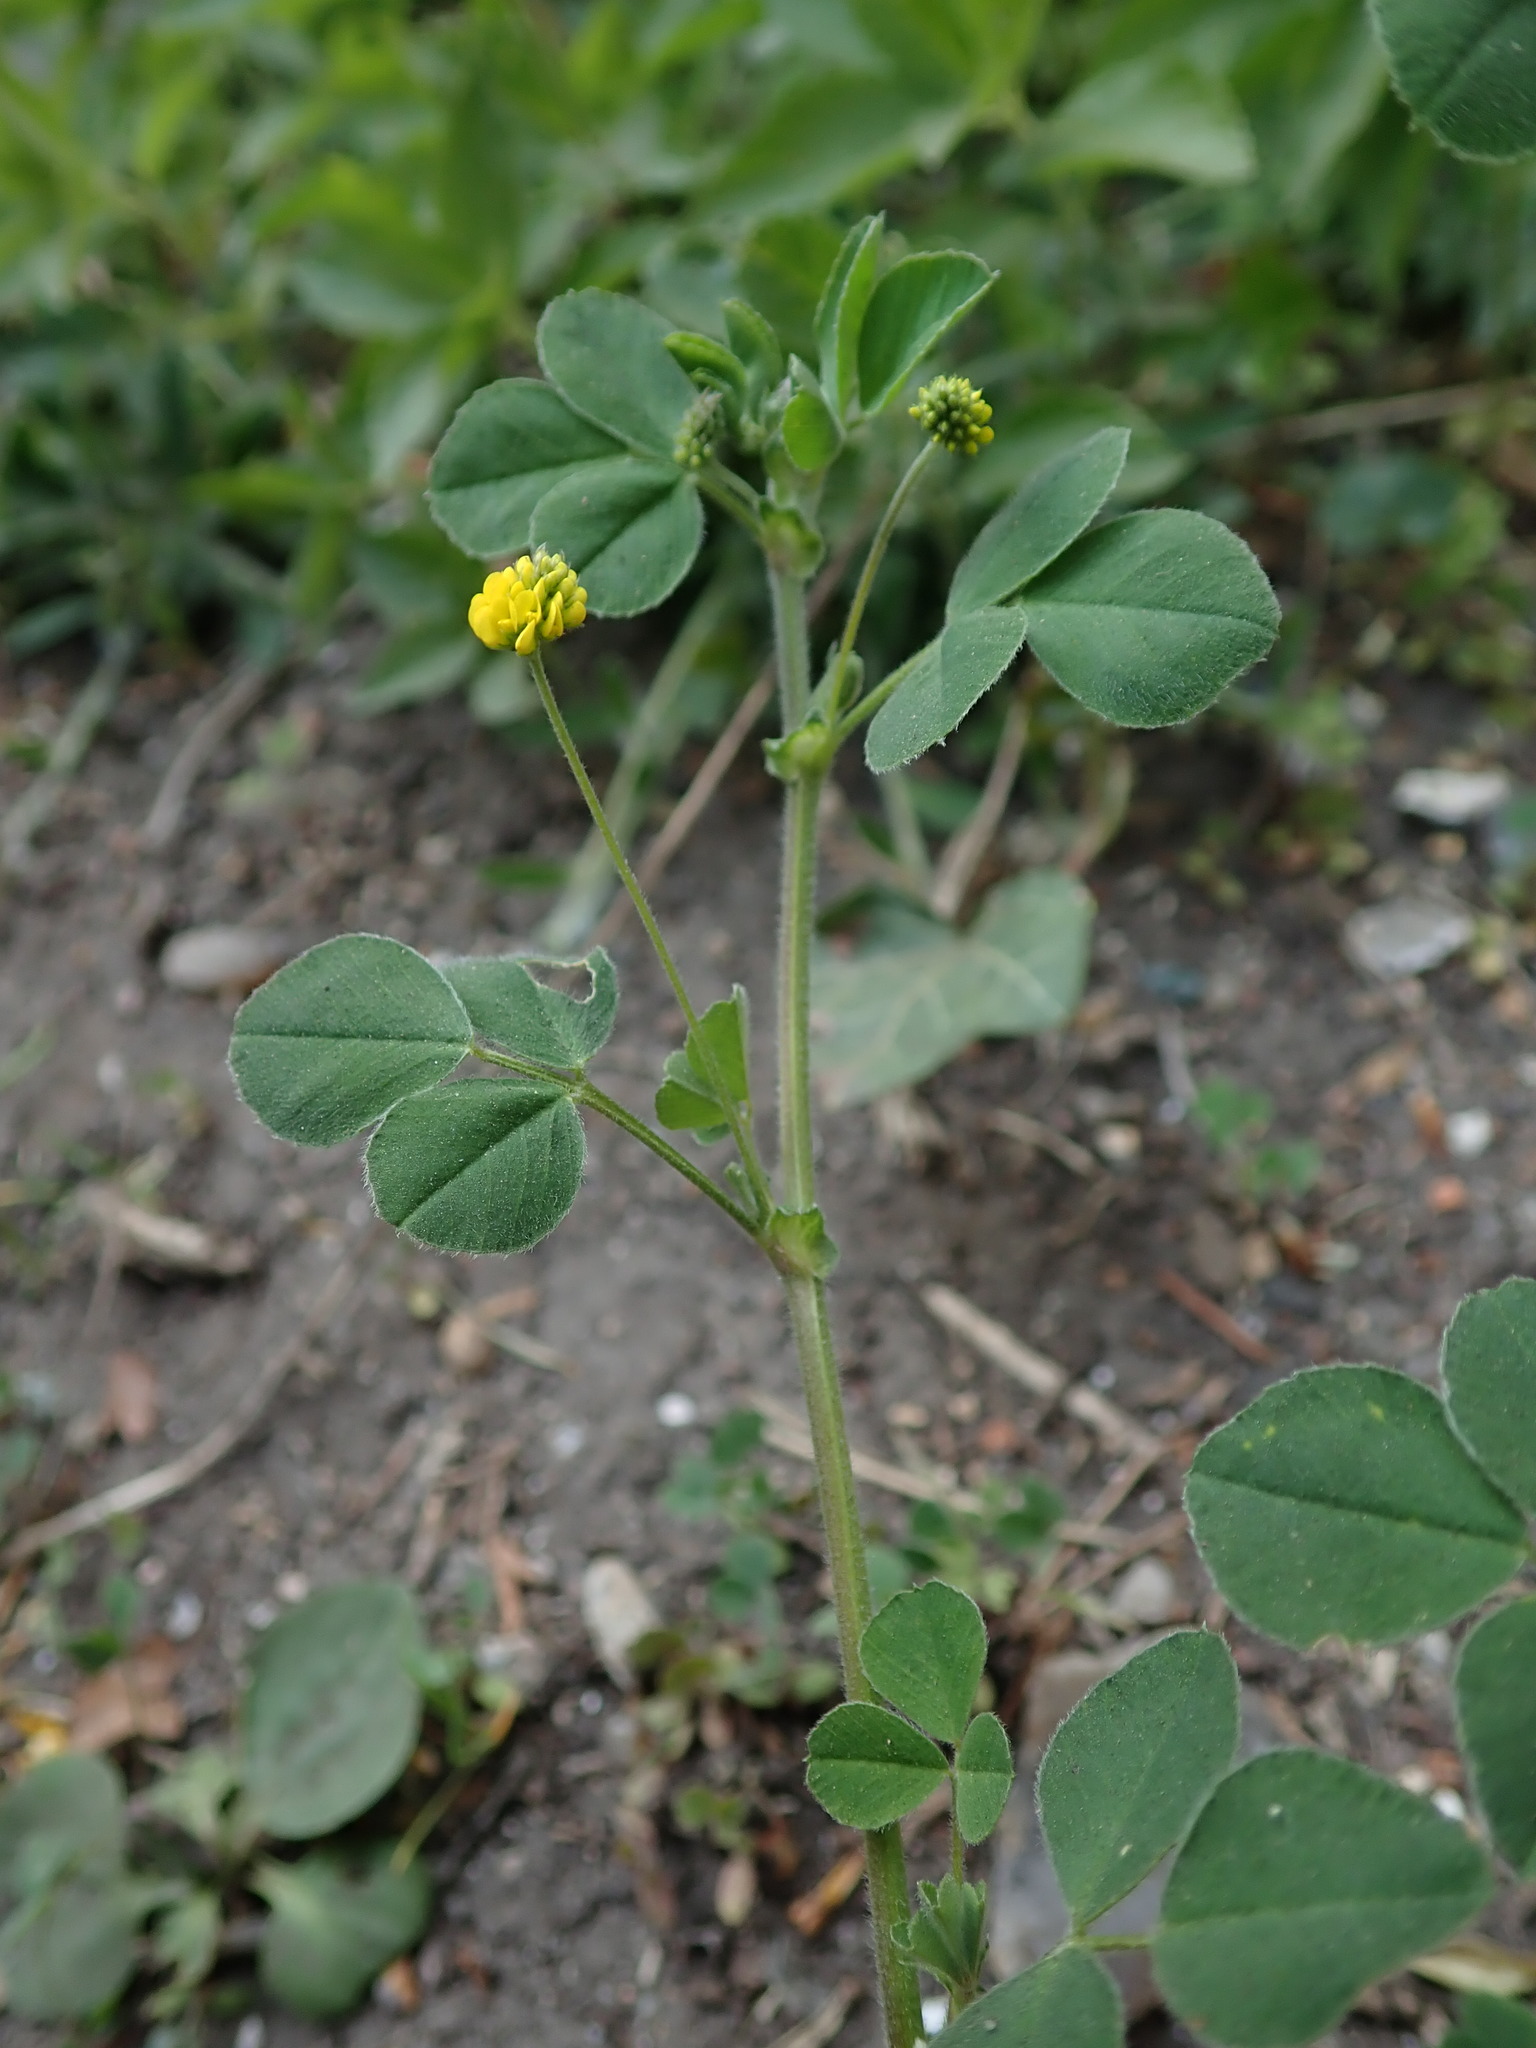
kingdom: Plantae
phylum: Tracheophyta
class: Magnoliopsida
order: Fabales
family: Fabaceae
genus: Medicago
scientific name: Medicago lupulina
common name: Black medick
